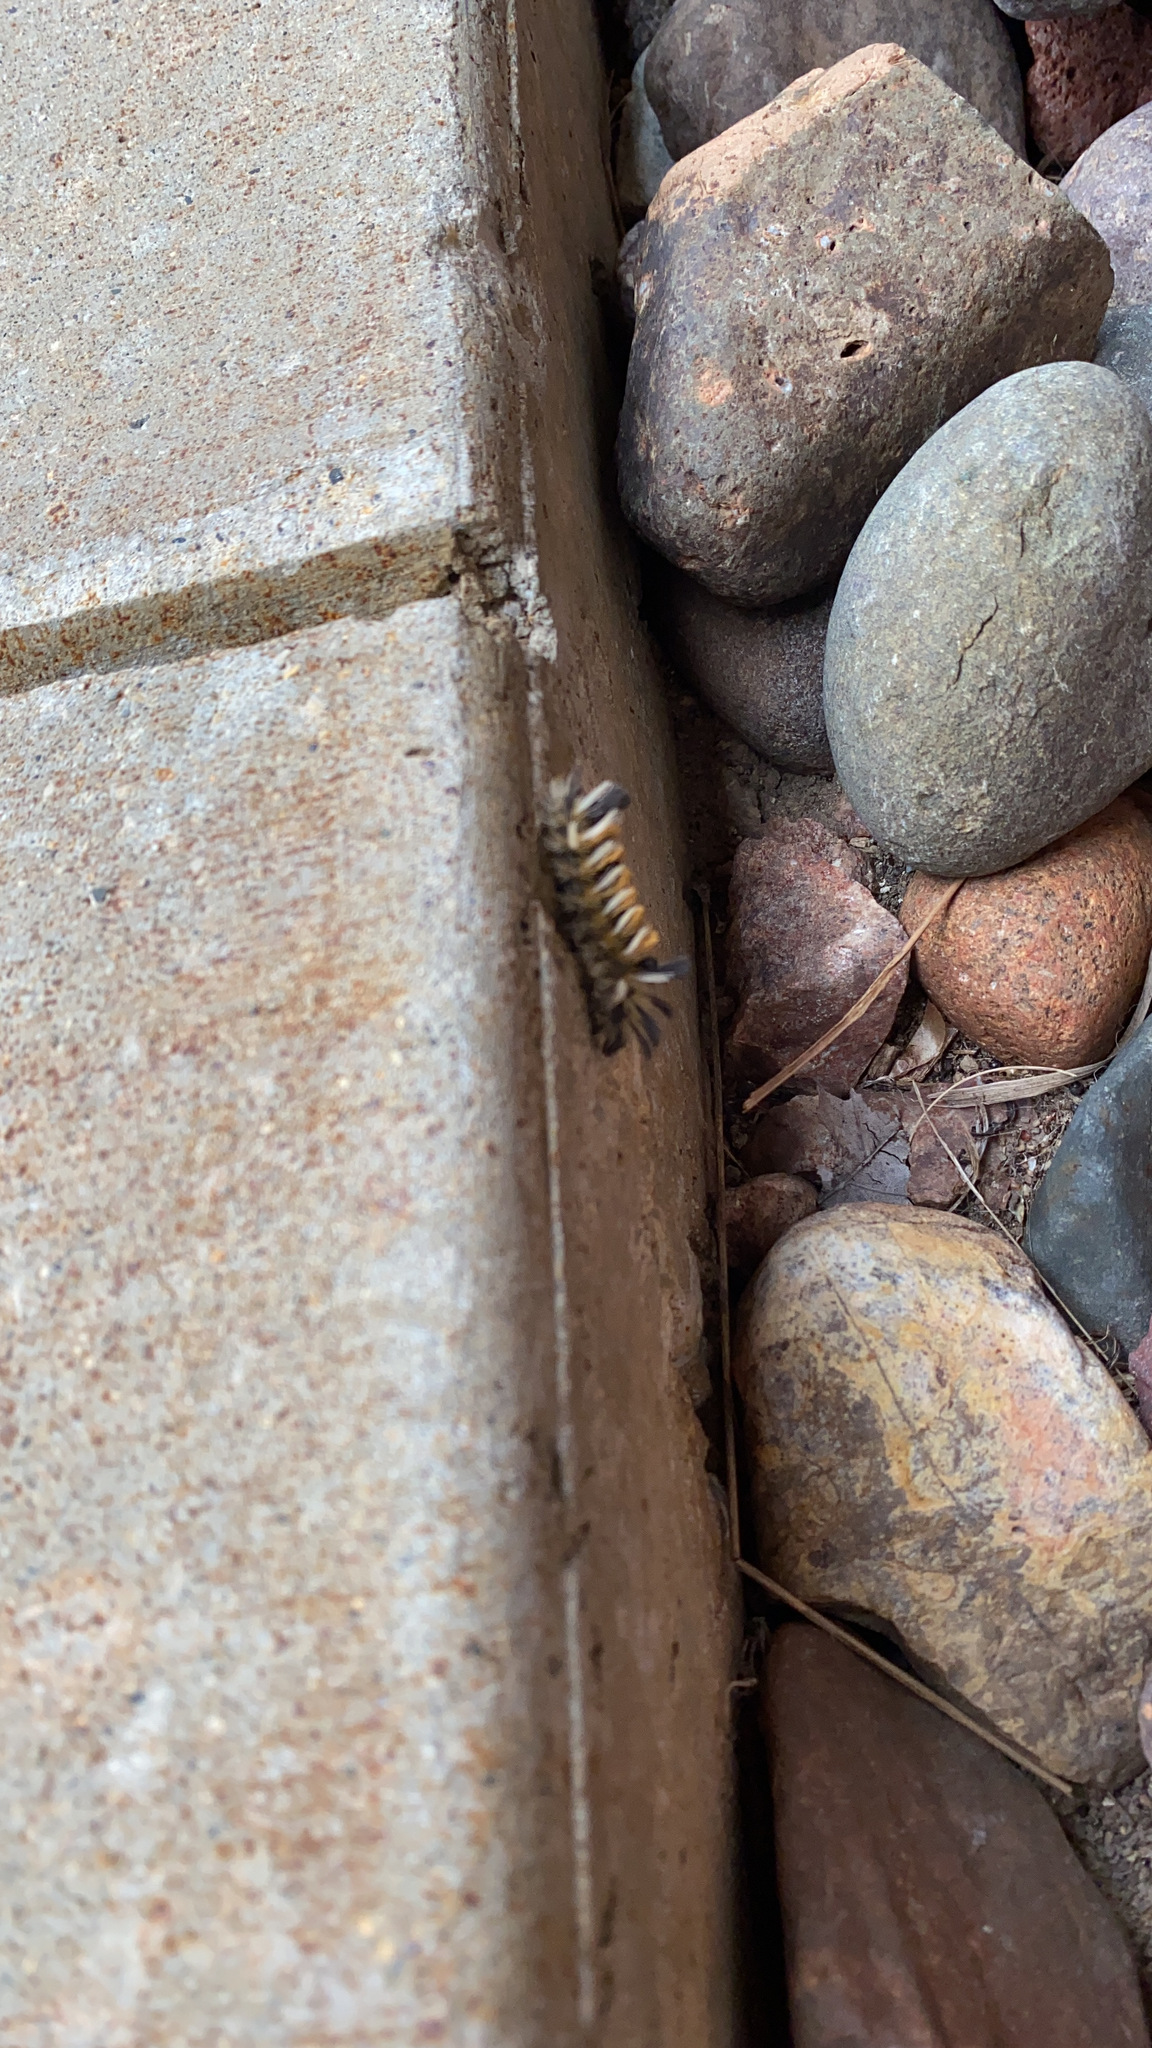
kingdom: Animalia
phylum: Arthropoda
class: Insecta
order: Lepidoptera
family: Erebidae
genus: Euchaetes
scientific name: Euchaetes egle
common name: Milkweed tussock moth
